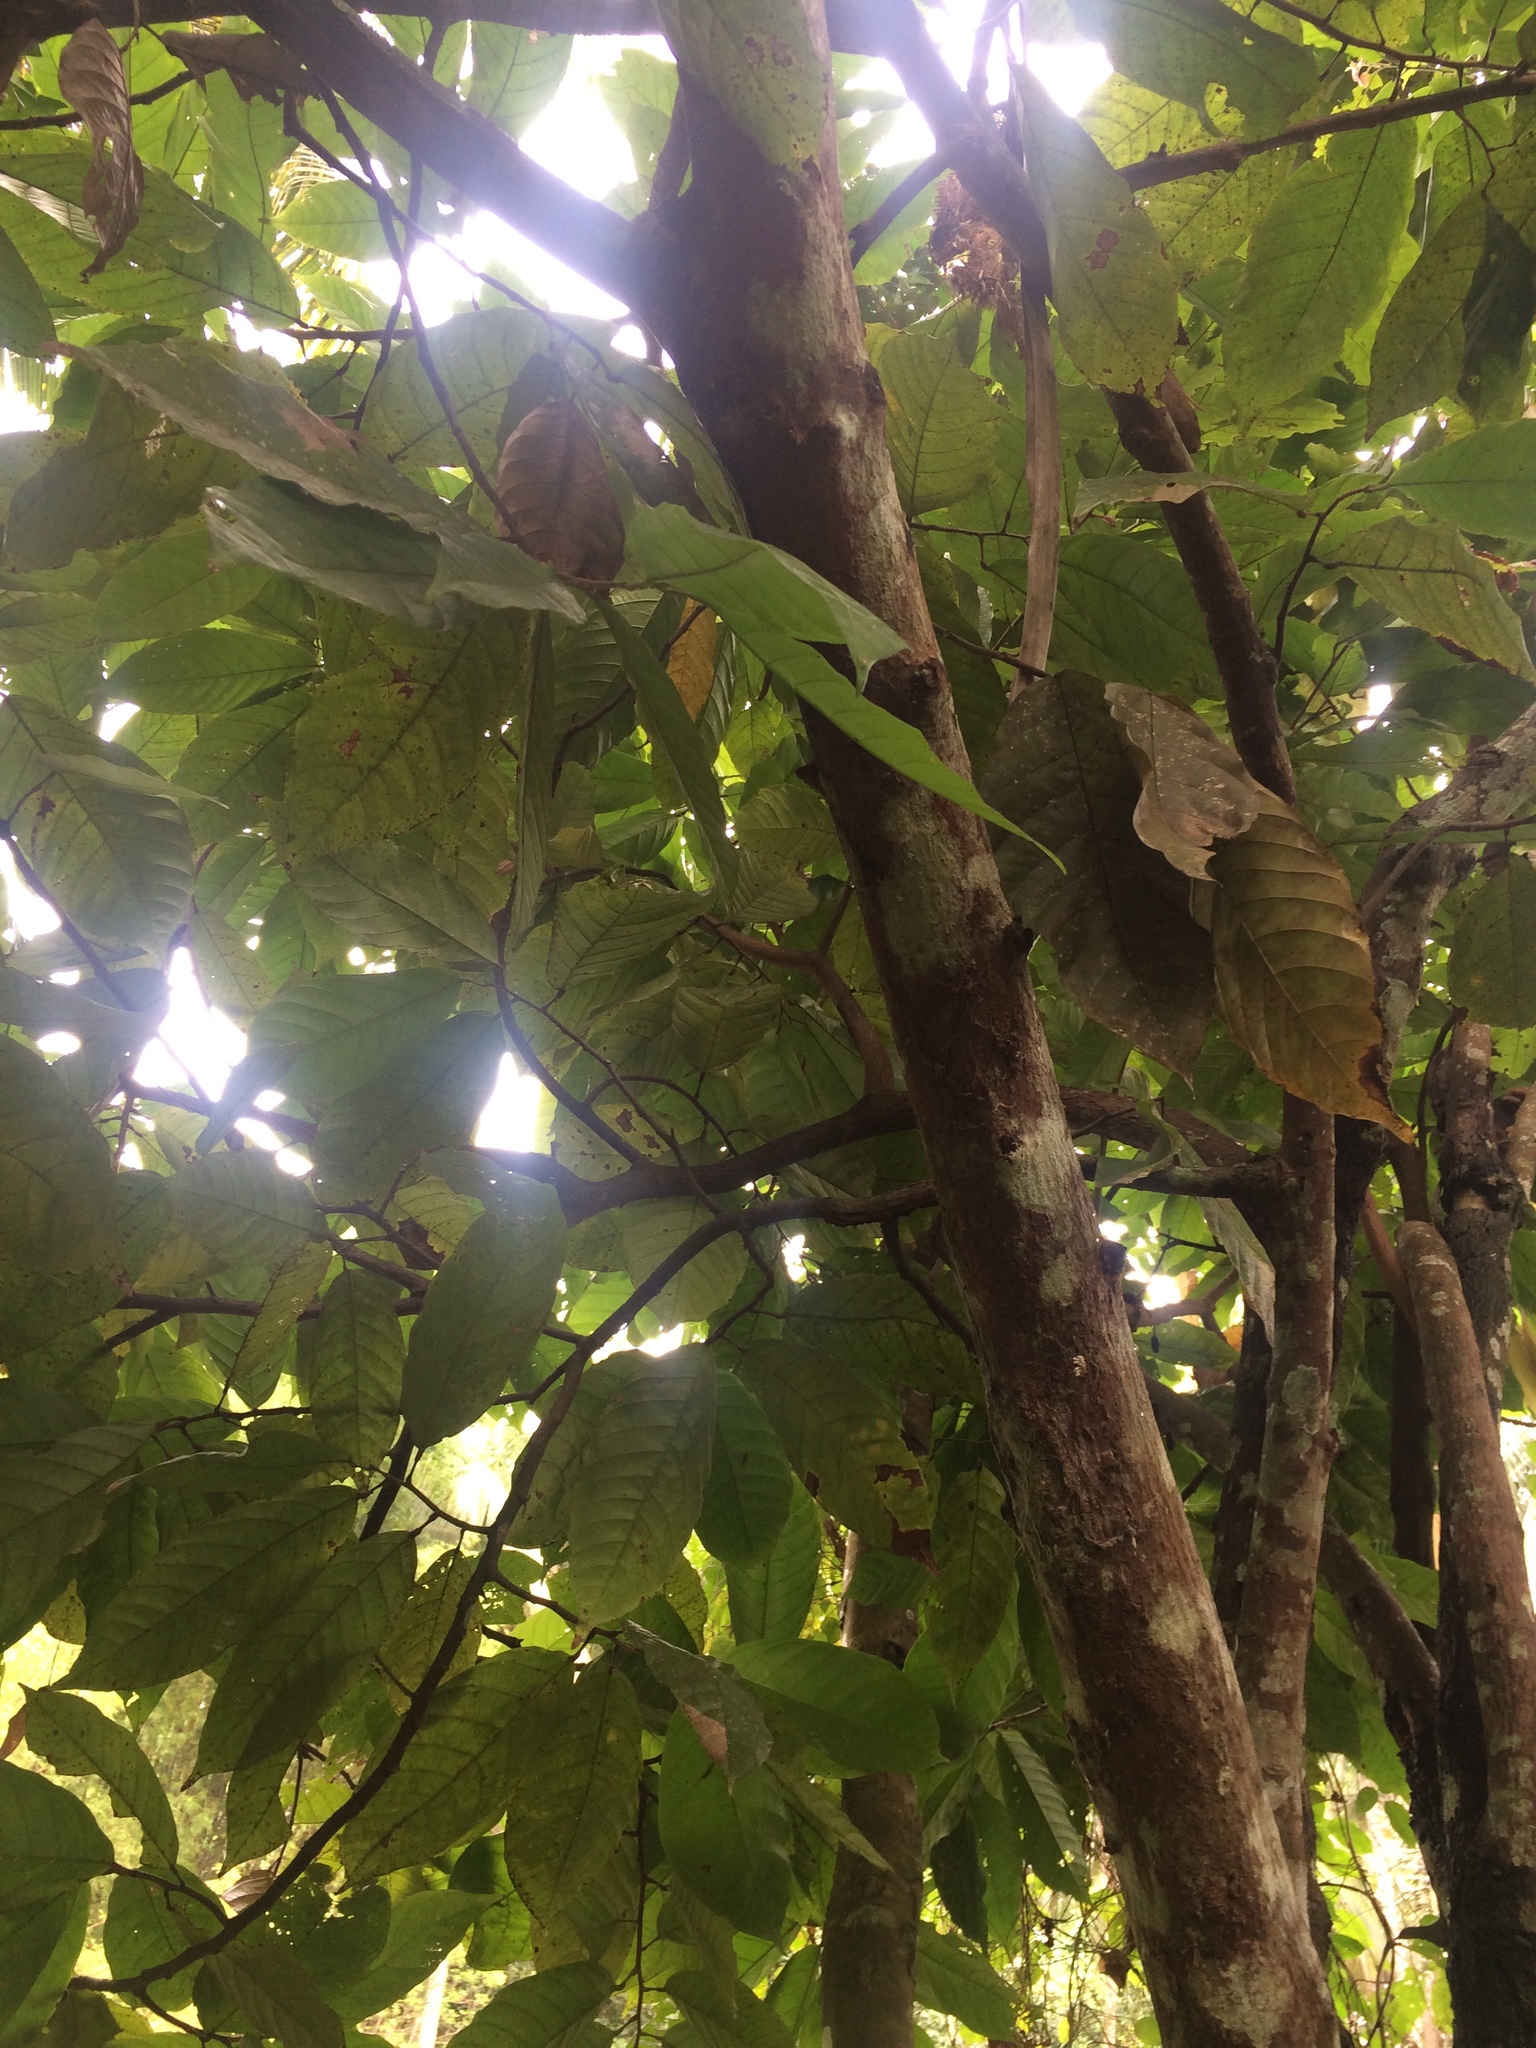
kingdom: Plantae
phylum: Tracheophyta
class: Magnoliopsida
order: Malvales
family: Malvaceae
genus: Theobroma
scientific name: Theobroma cacao
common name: Cocoa
